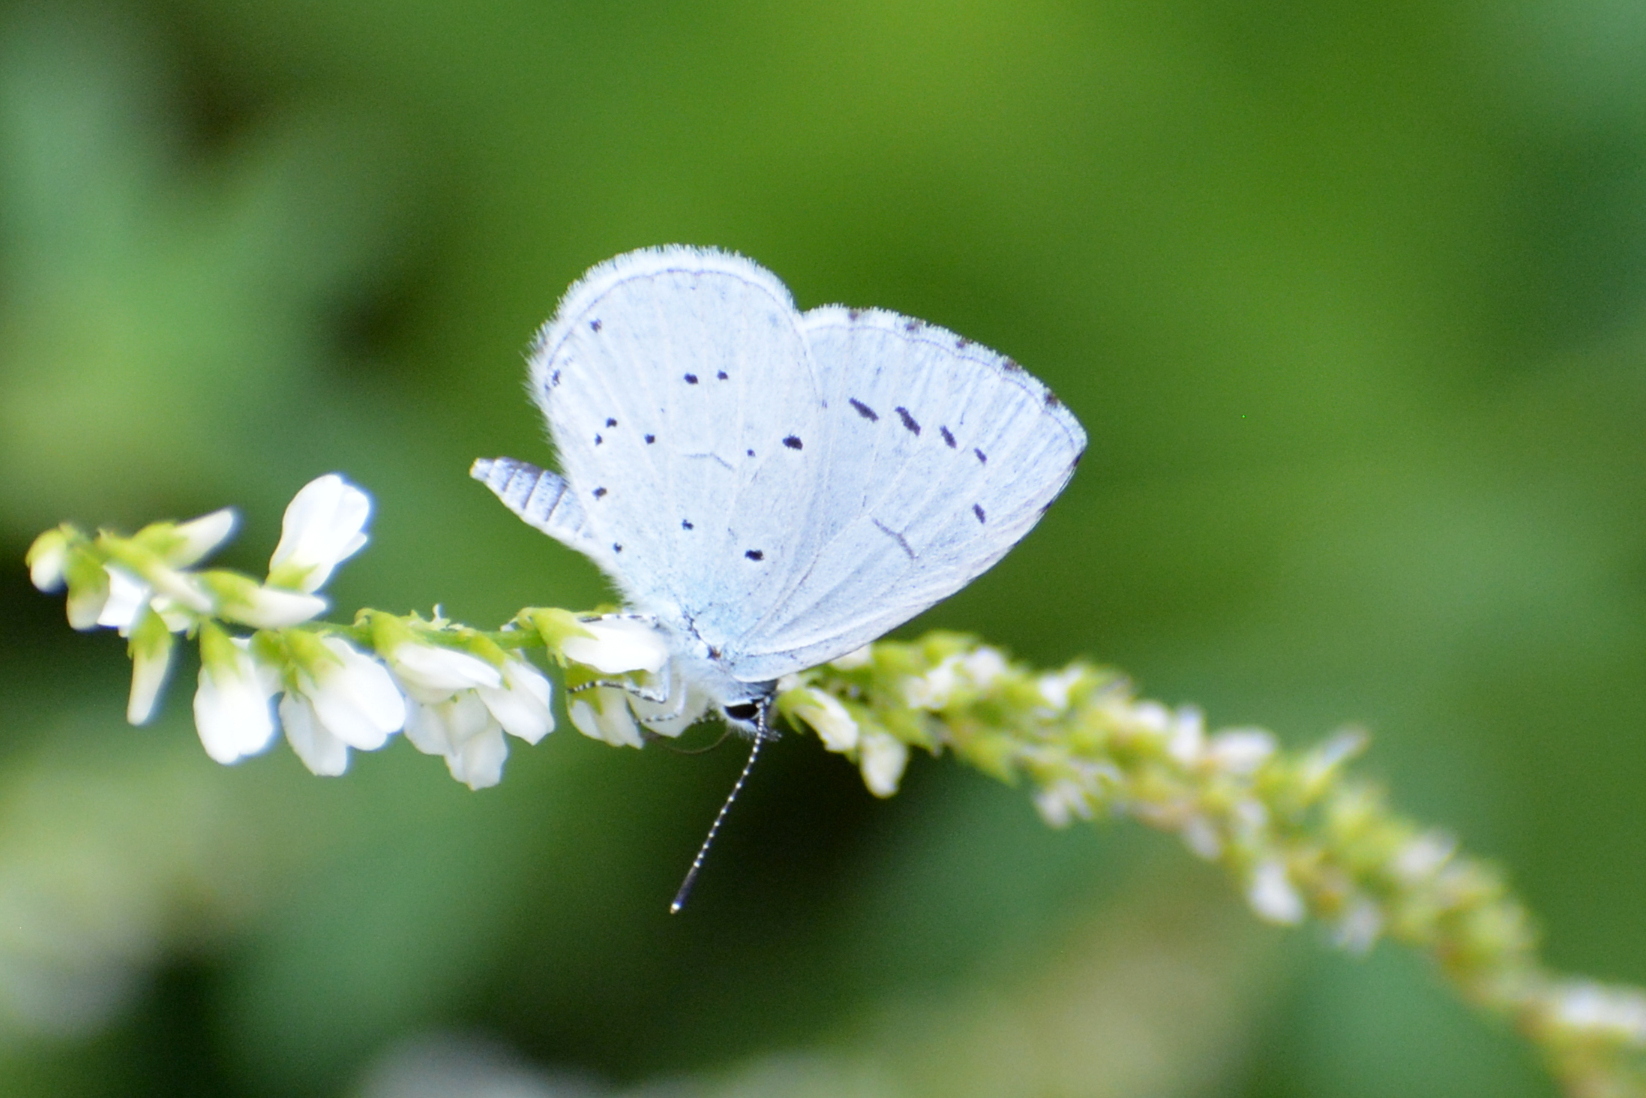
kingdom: Animalia
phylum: Arthropoda
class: Insecta
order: Lepidoptera
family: Lycaenidae
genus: Celastrina
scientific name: Celastrina argiolus
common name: Holly blue
